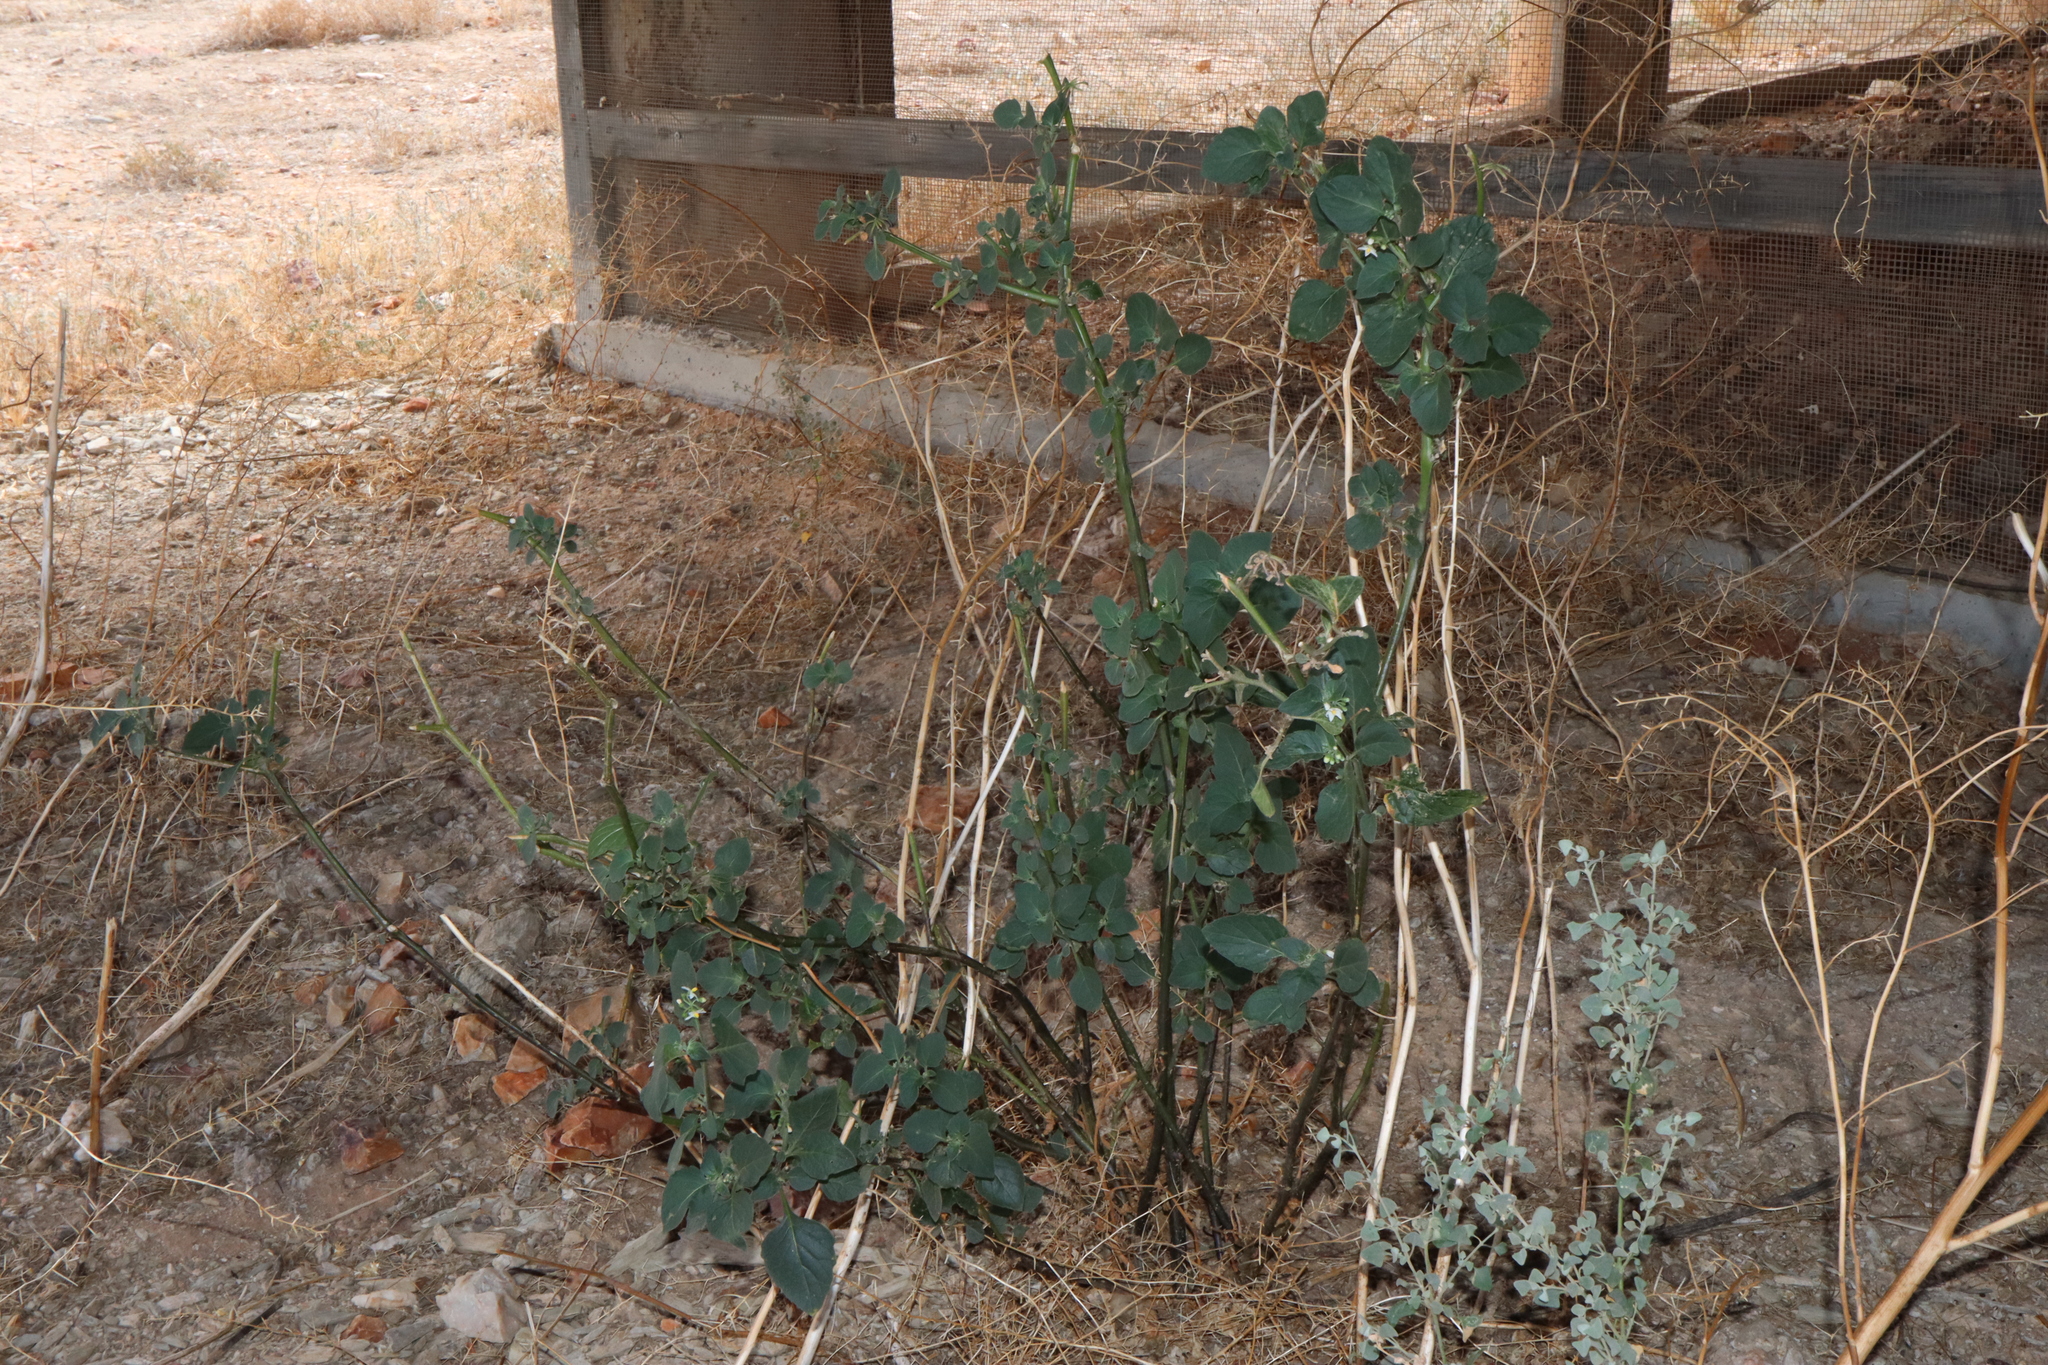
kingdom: Plantae
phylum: Tracheophyta
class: Magnoliopsida
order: Solanales
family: Solanaceae
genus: Solanum
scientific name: Solanum nigrum
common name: Black nightshade
